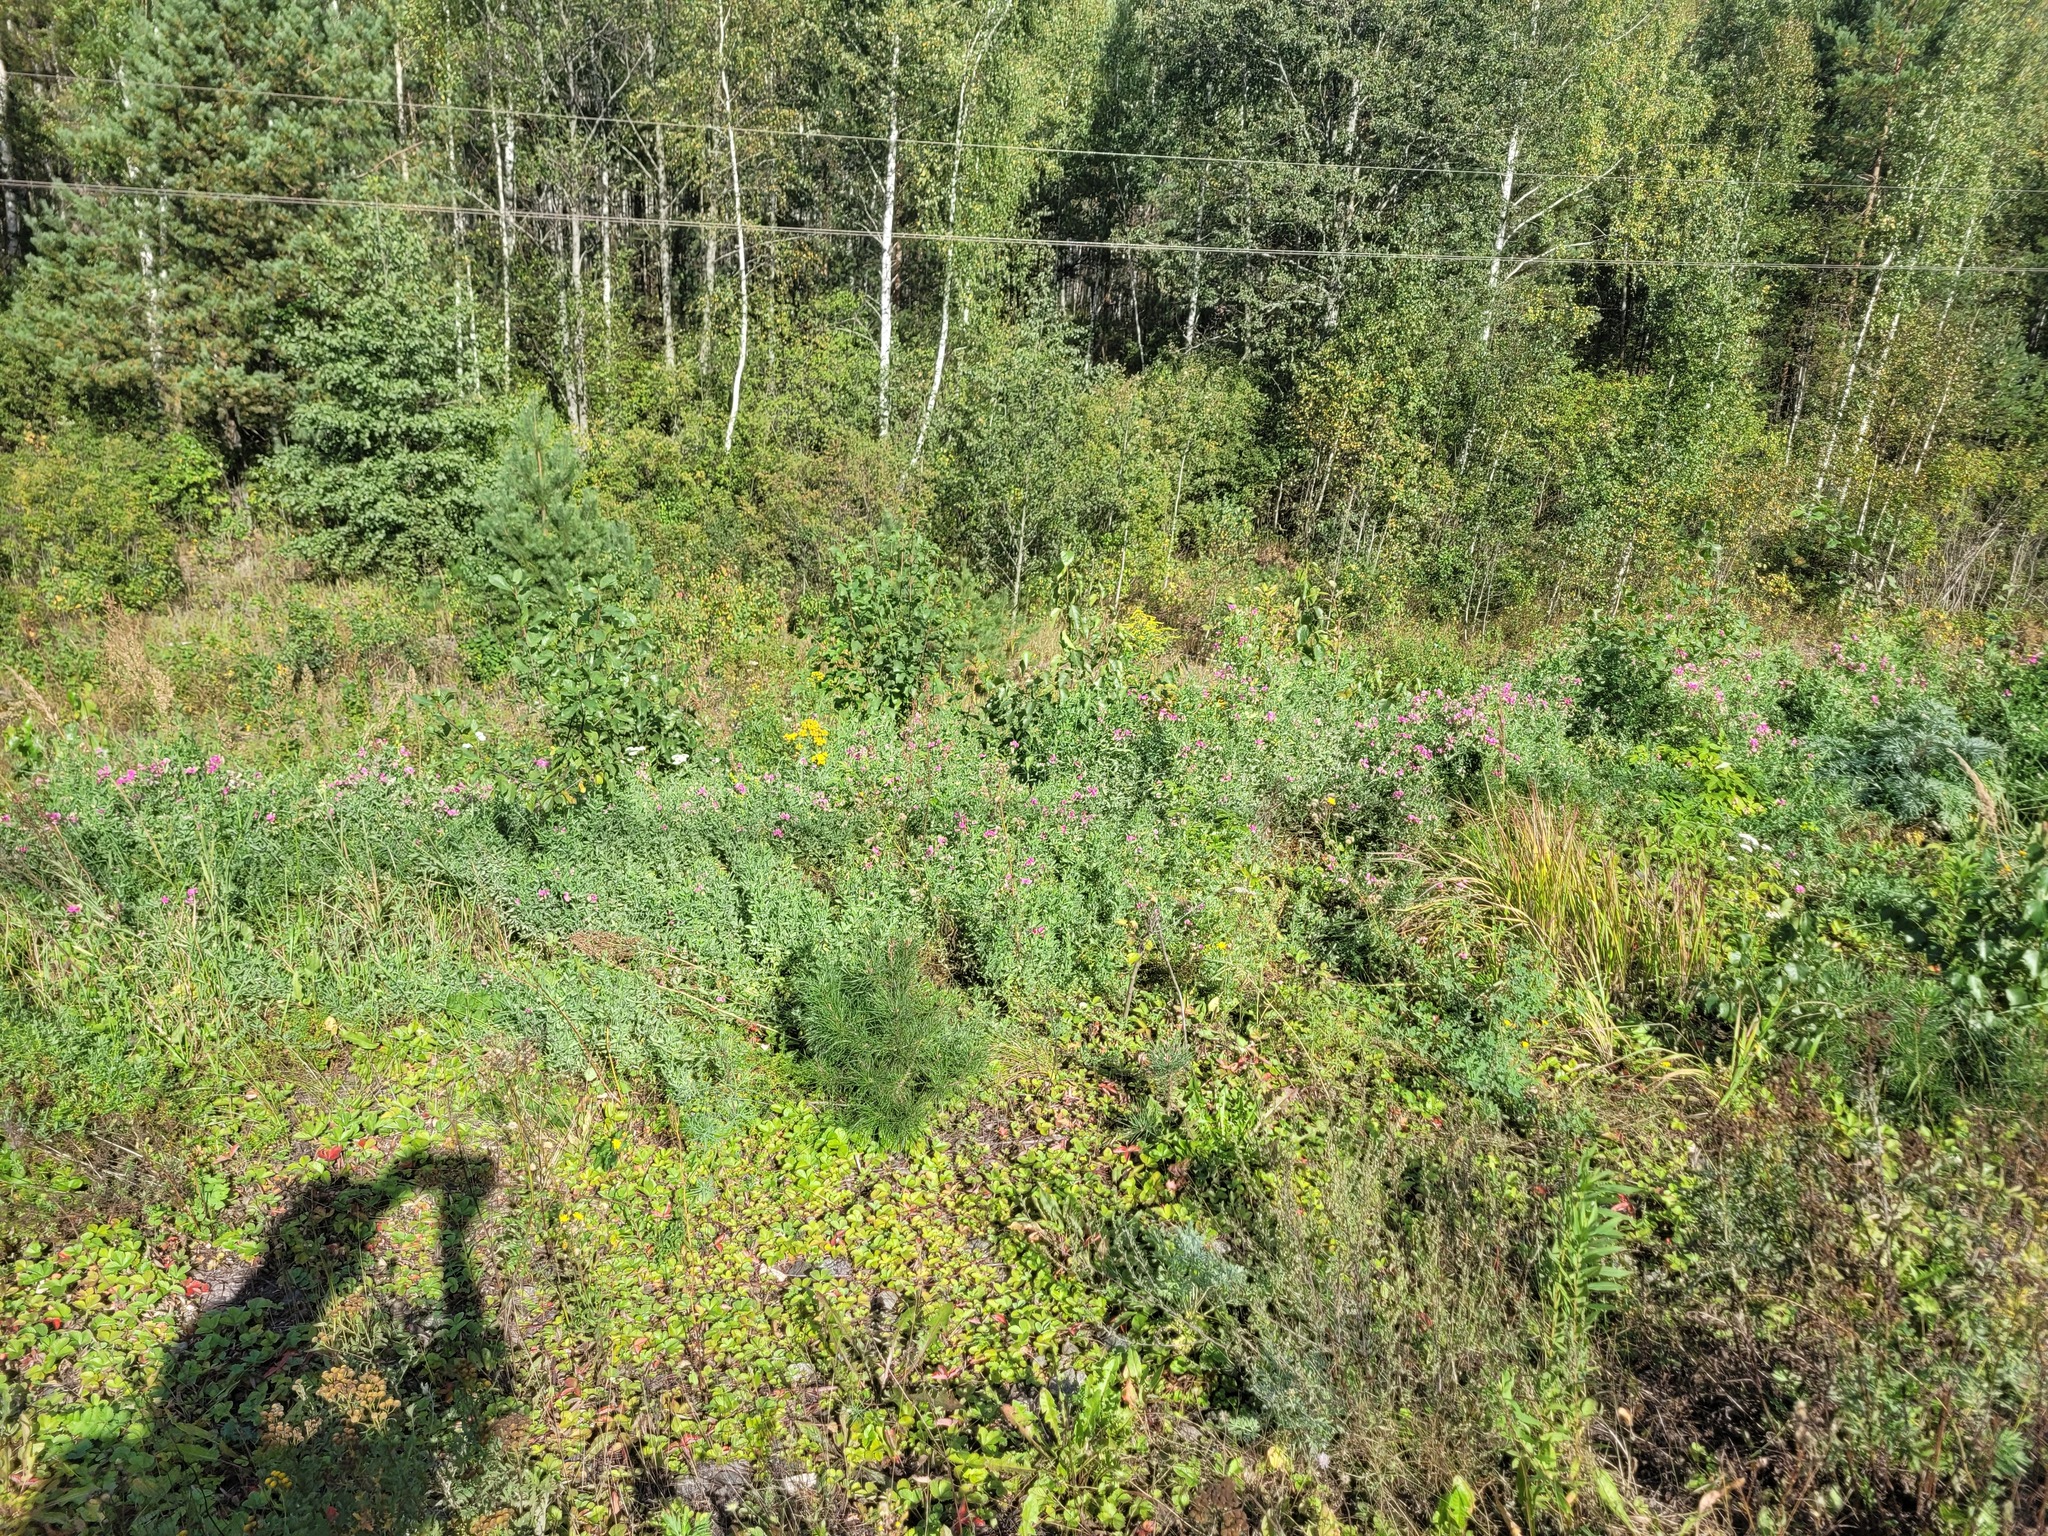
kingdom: Plantae
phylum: Tracheophyta
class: Magnoliopsida
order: Fabales
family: Fabaceae
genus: Lathyrus
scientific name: Lathyrus tuberosus
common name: Tuberous pea
